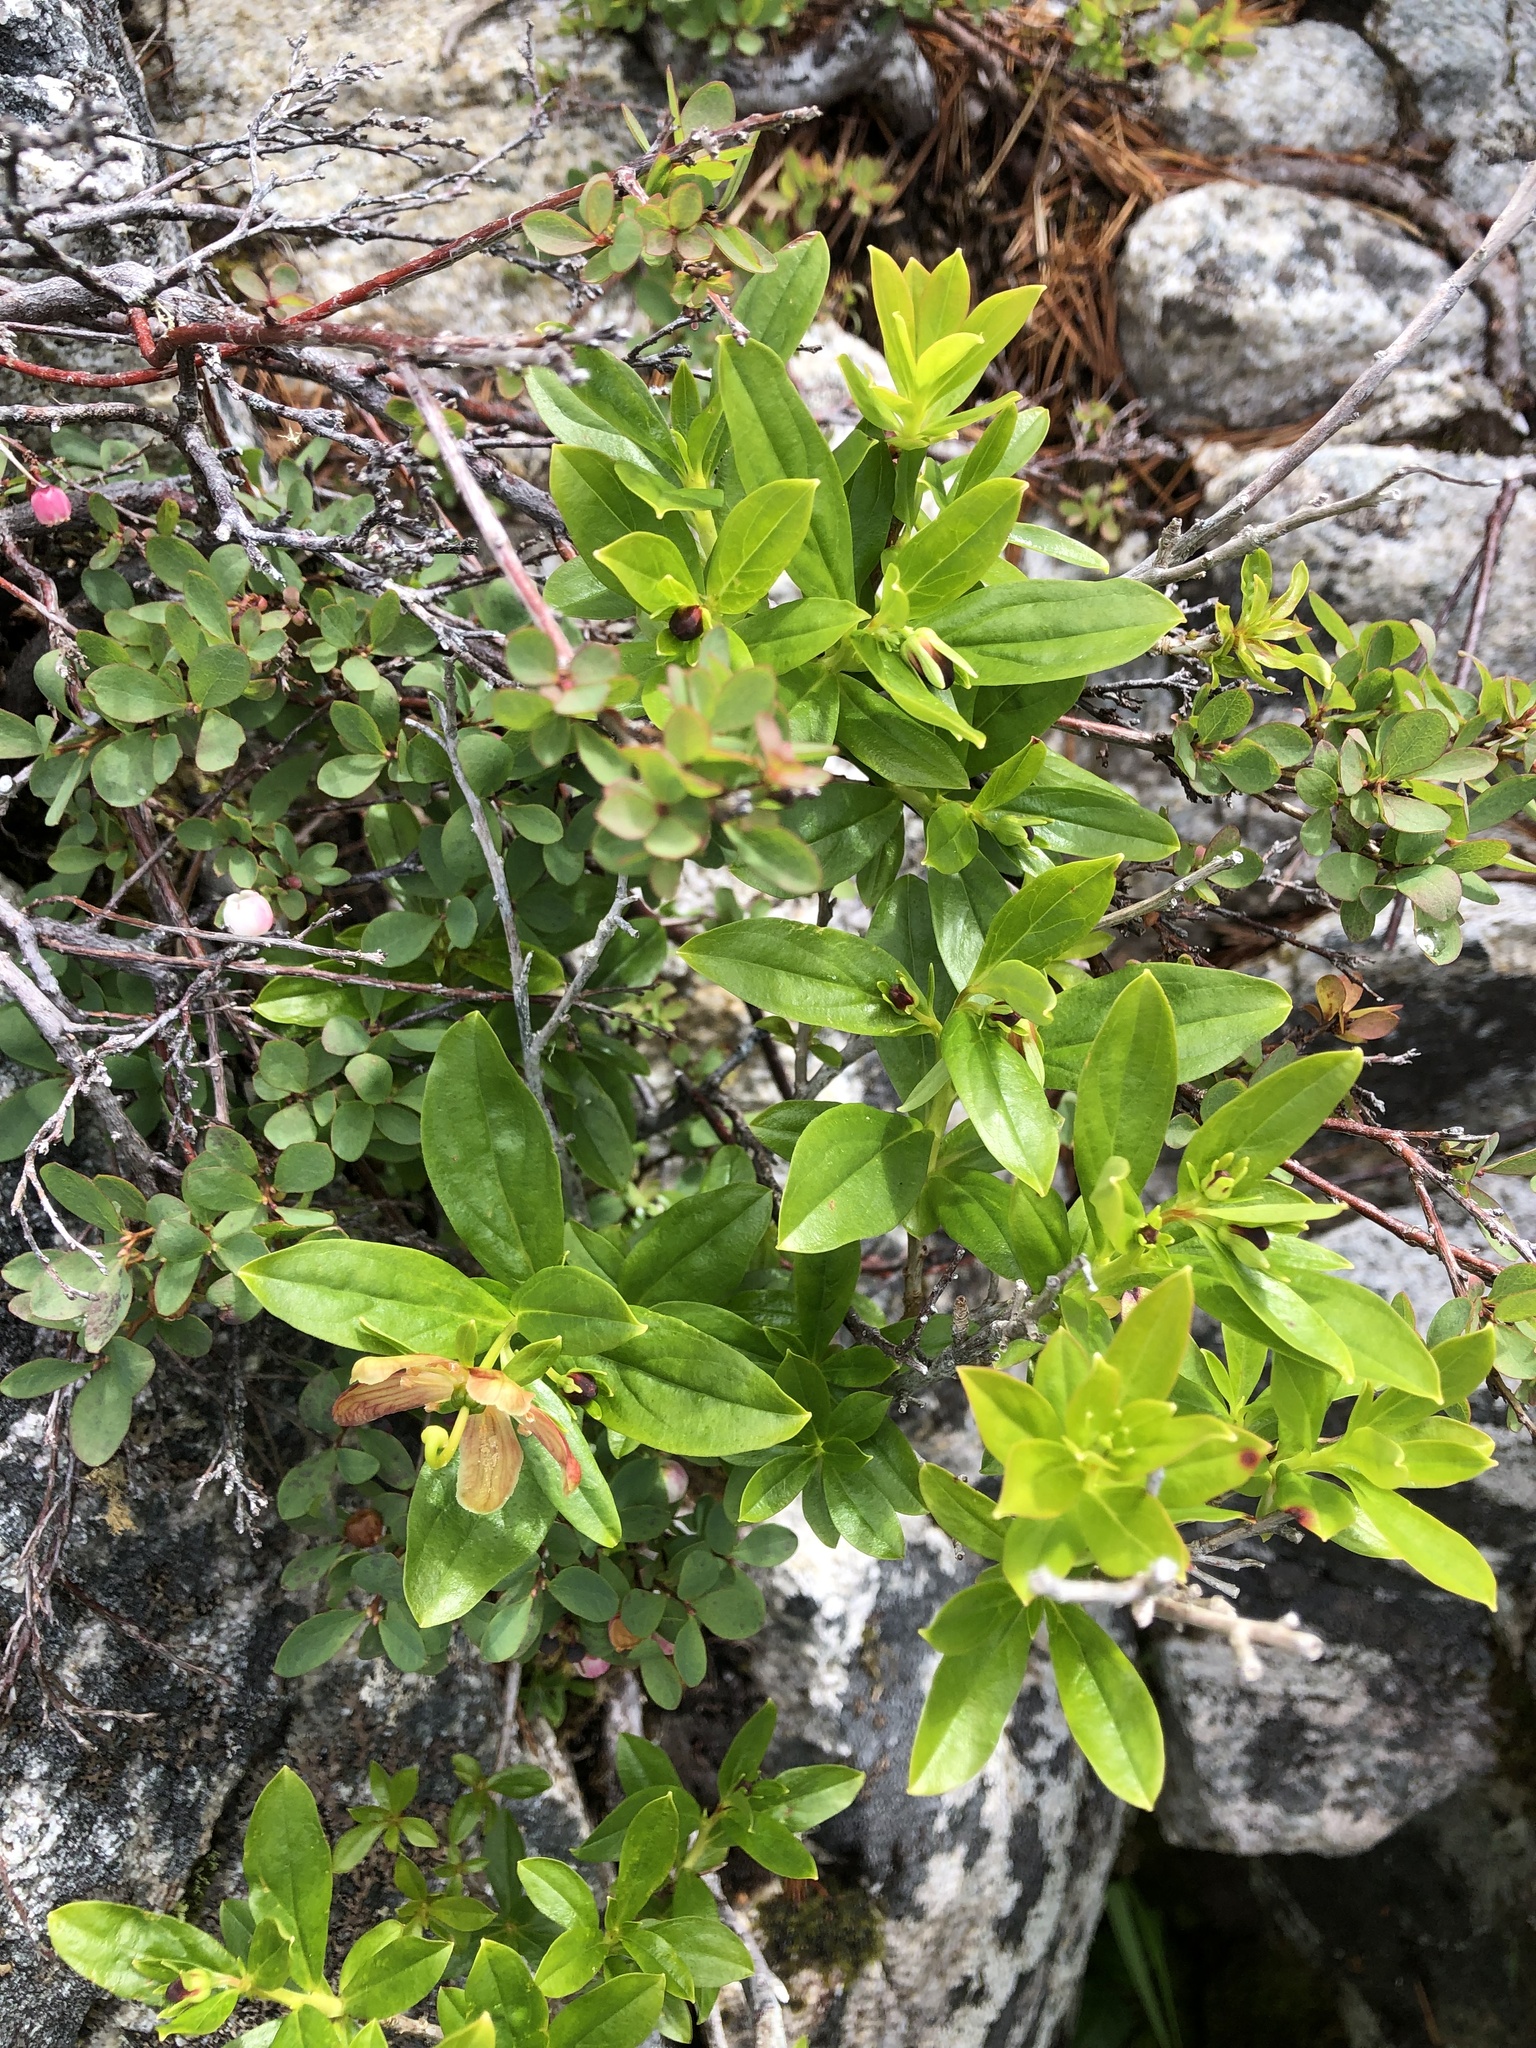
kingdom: Plantae
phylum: Tracheophyta
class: Magnoliopsida
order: Ericales
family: Ericaceae
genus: Elliottia
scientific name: Elliottia pyroliflora
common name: Copperbush
